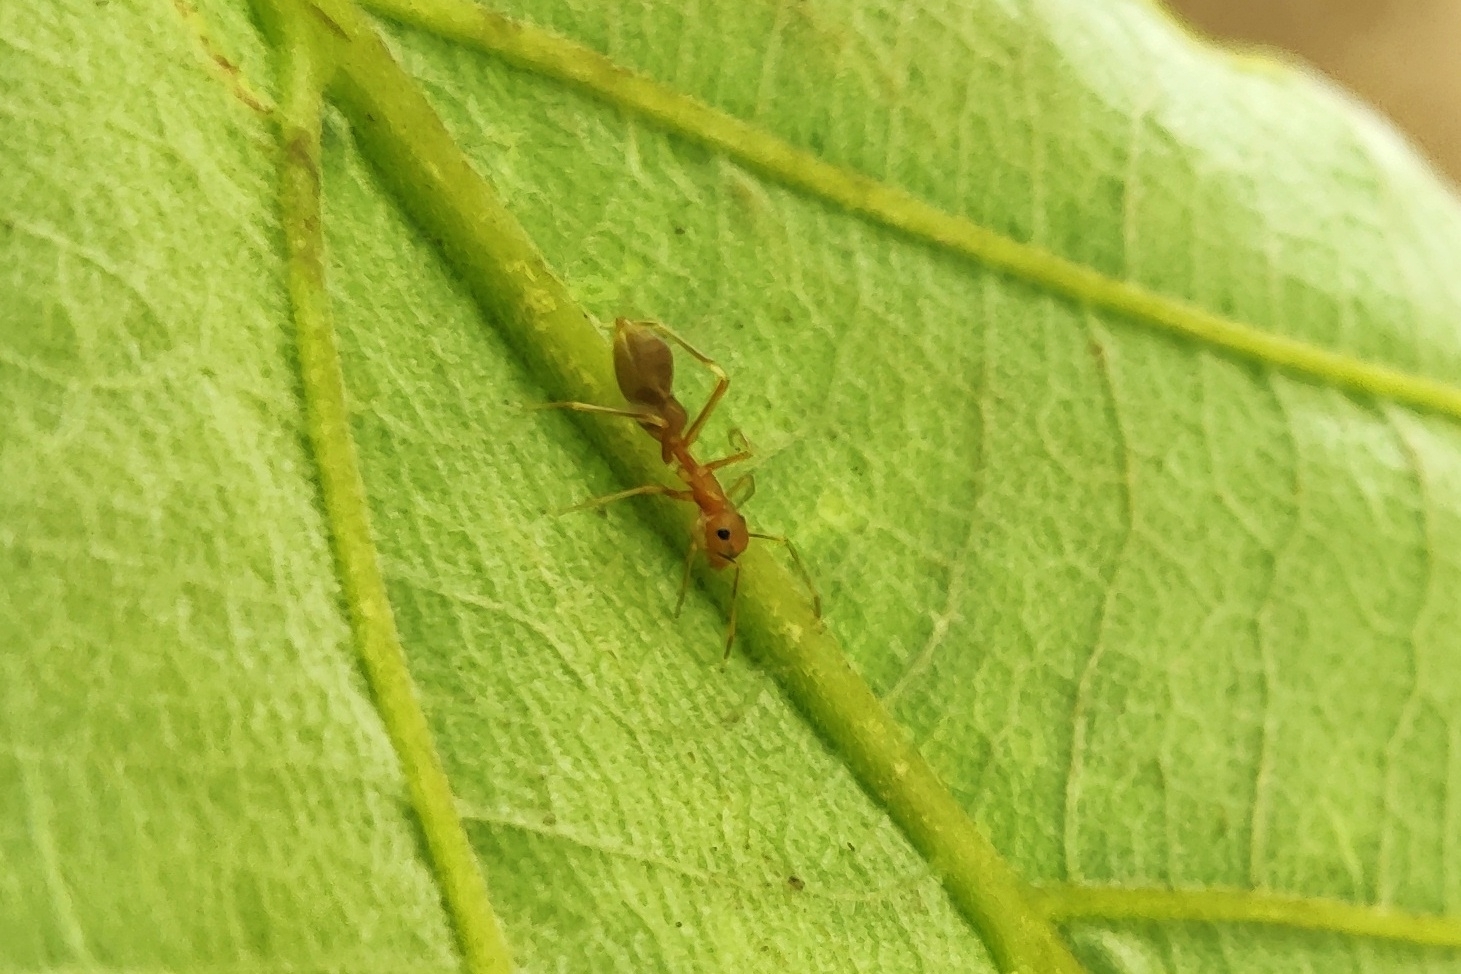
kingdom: Animalia
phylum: Arthropoda
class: Arachnida
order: Araneae
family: Salticidae
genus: Myrmaplata
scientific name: Myrmaplata plataleoides
